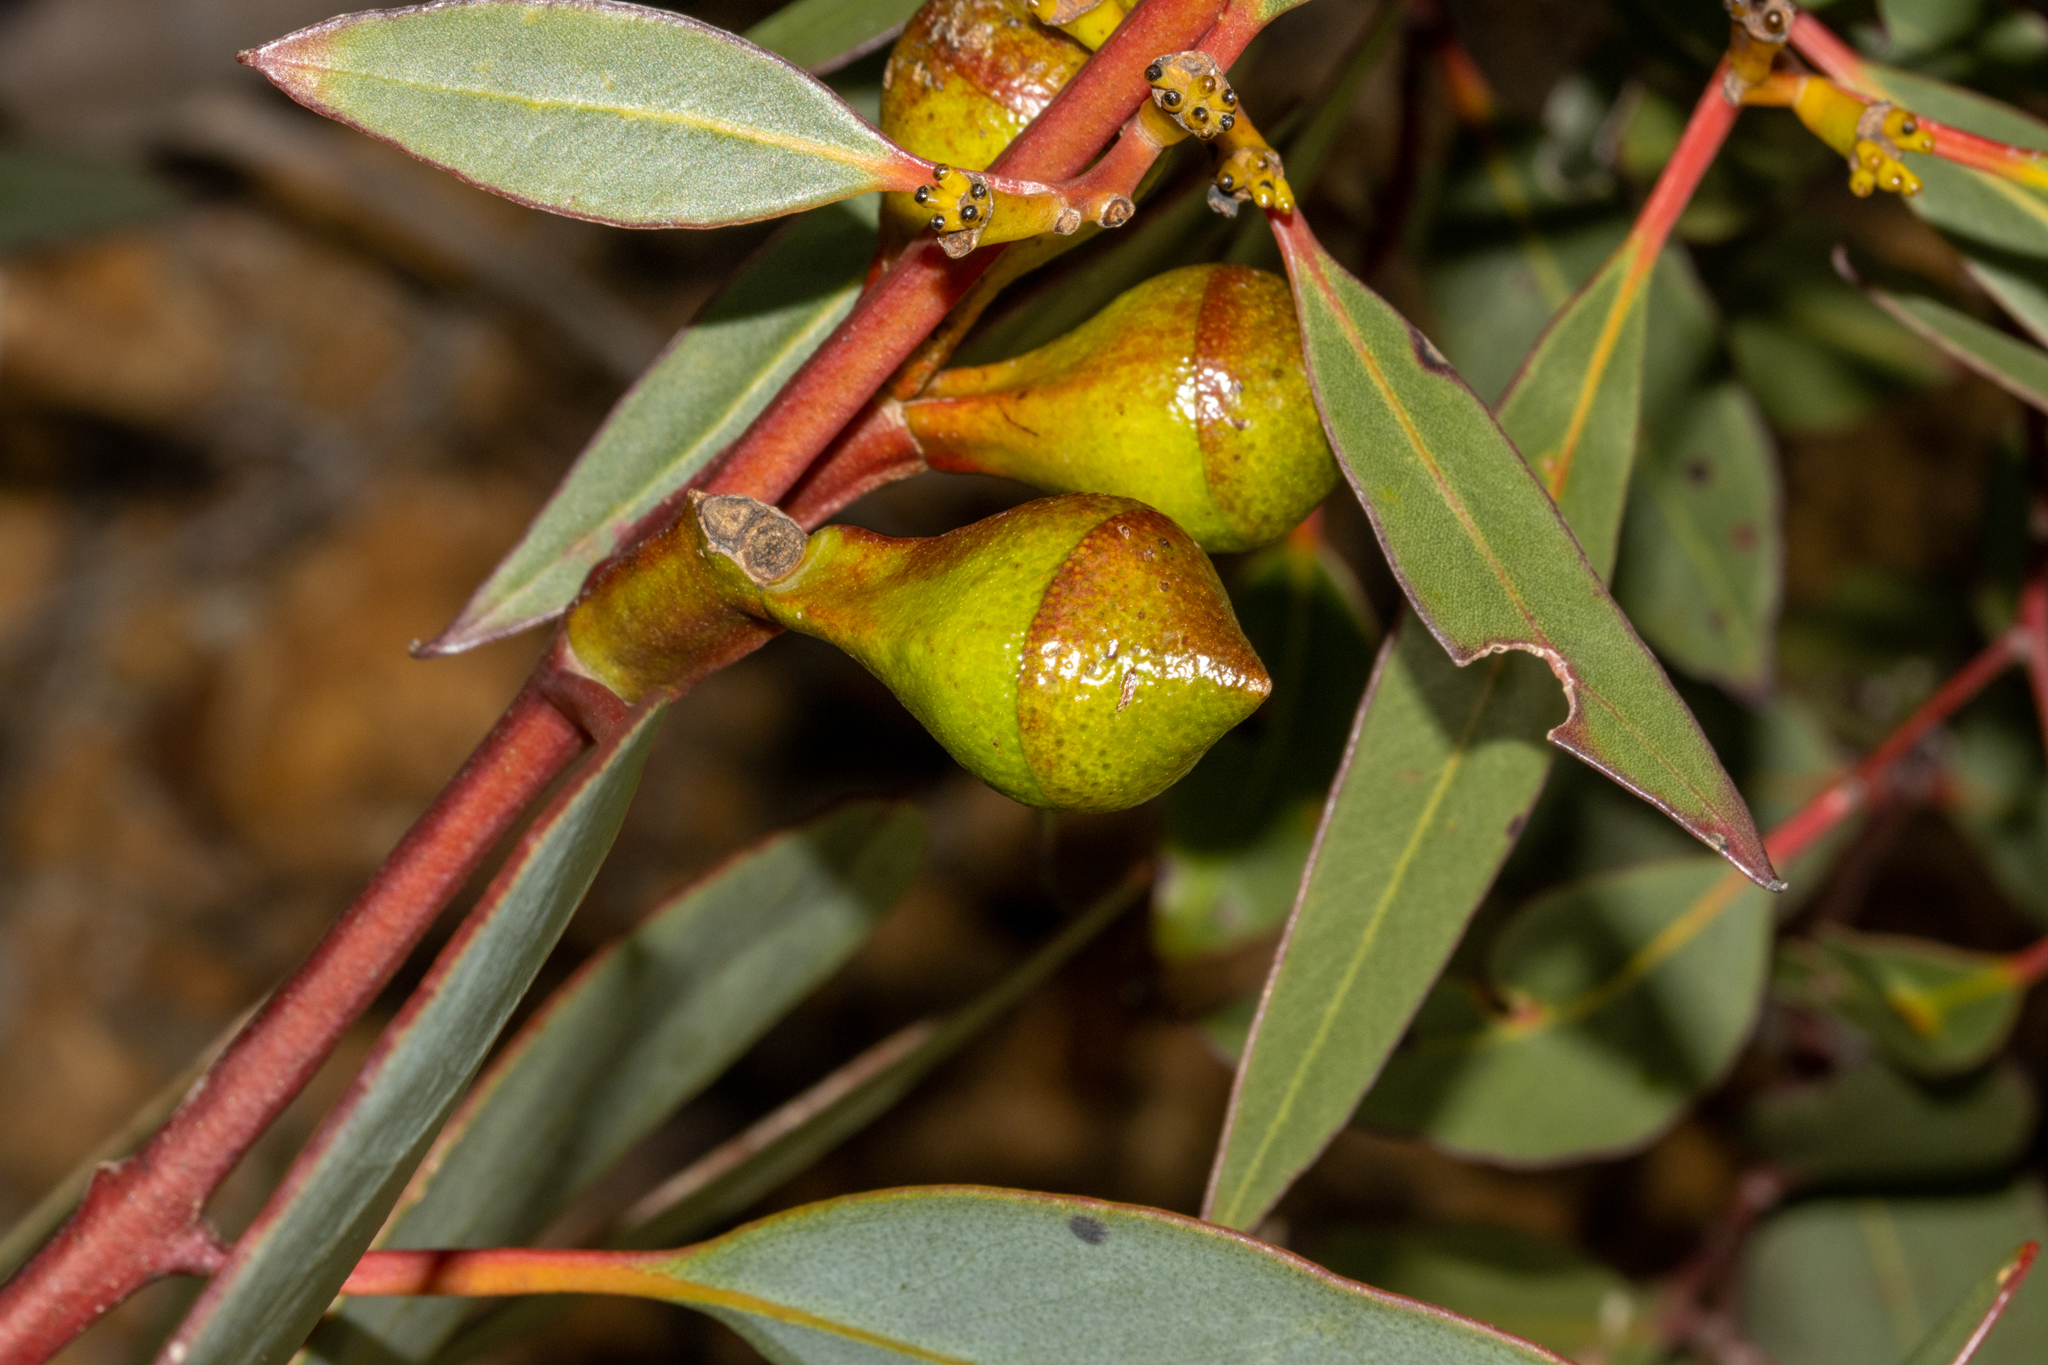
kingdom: Plantae
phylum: Tracheophyta
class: Magnoliopsida
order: Myrtales
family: Myrtaceae
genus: Eucalyptus
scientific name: Eucalyptus preissiana
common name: Stirling range mallee
